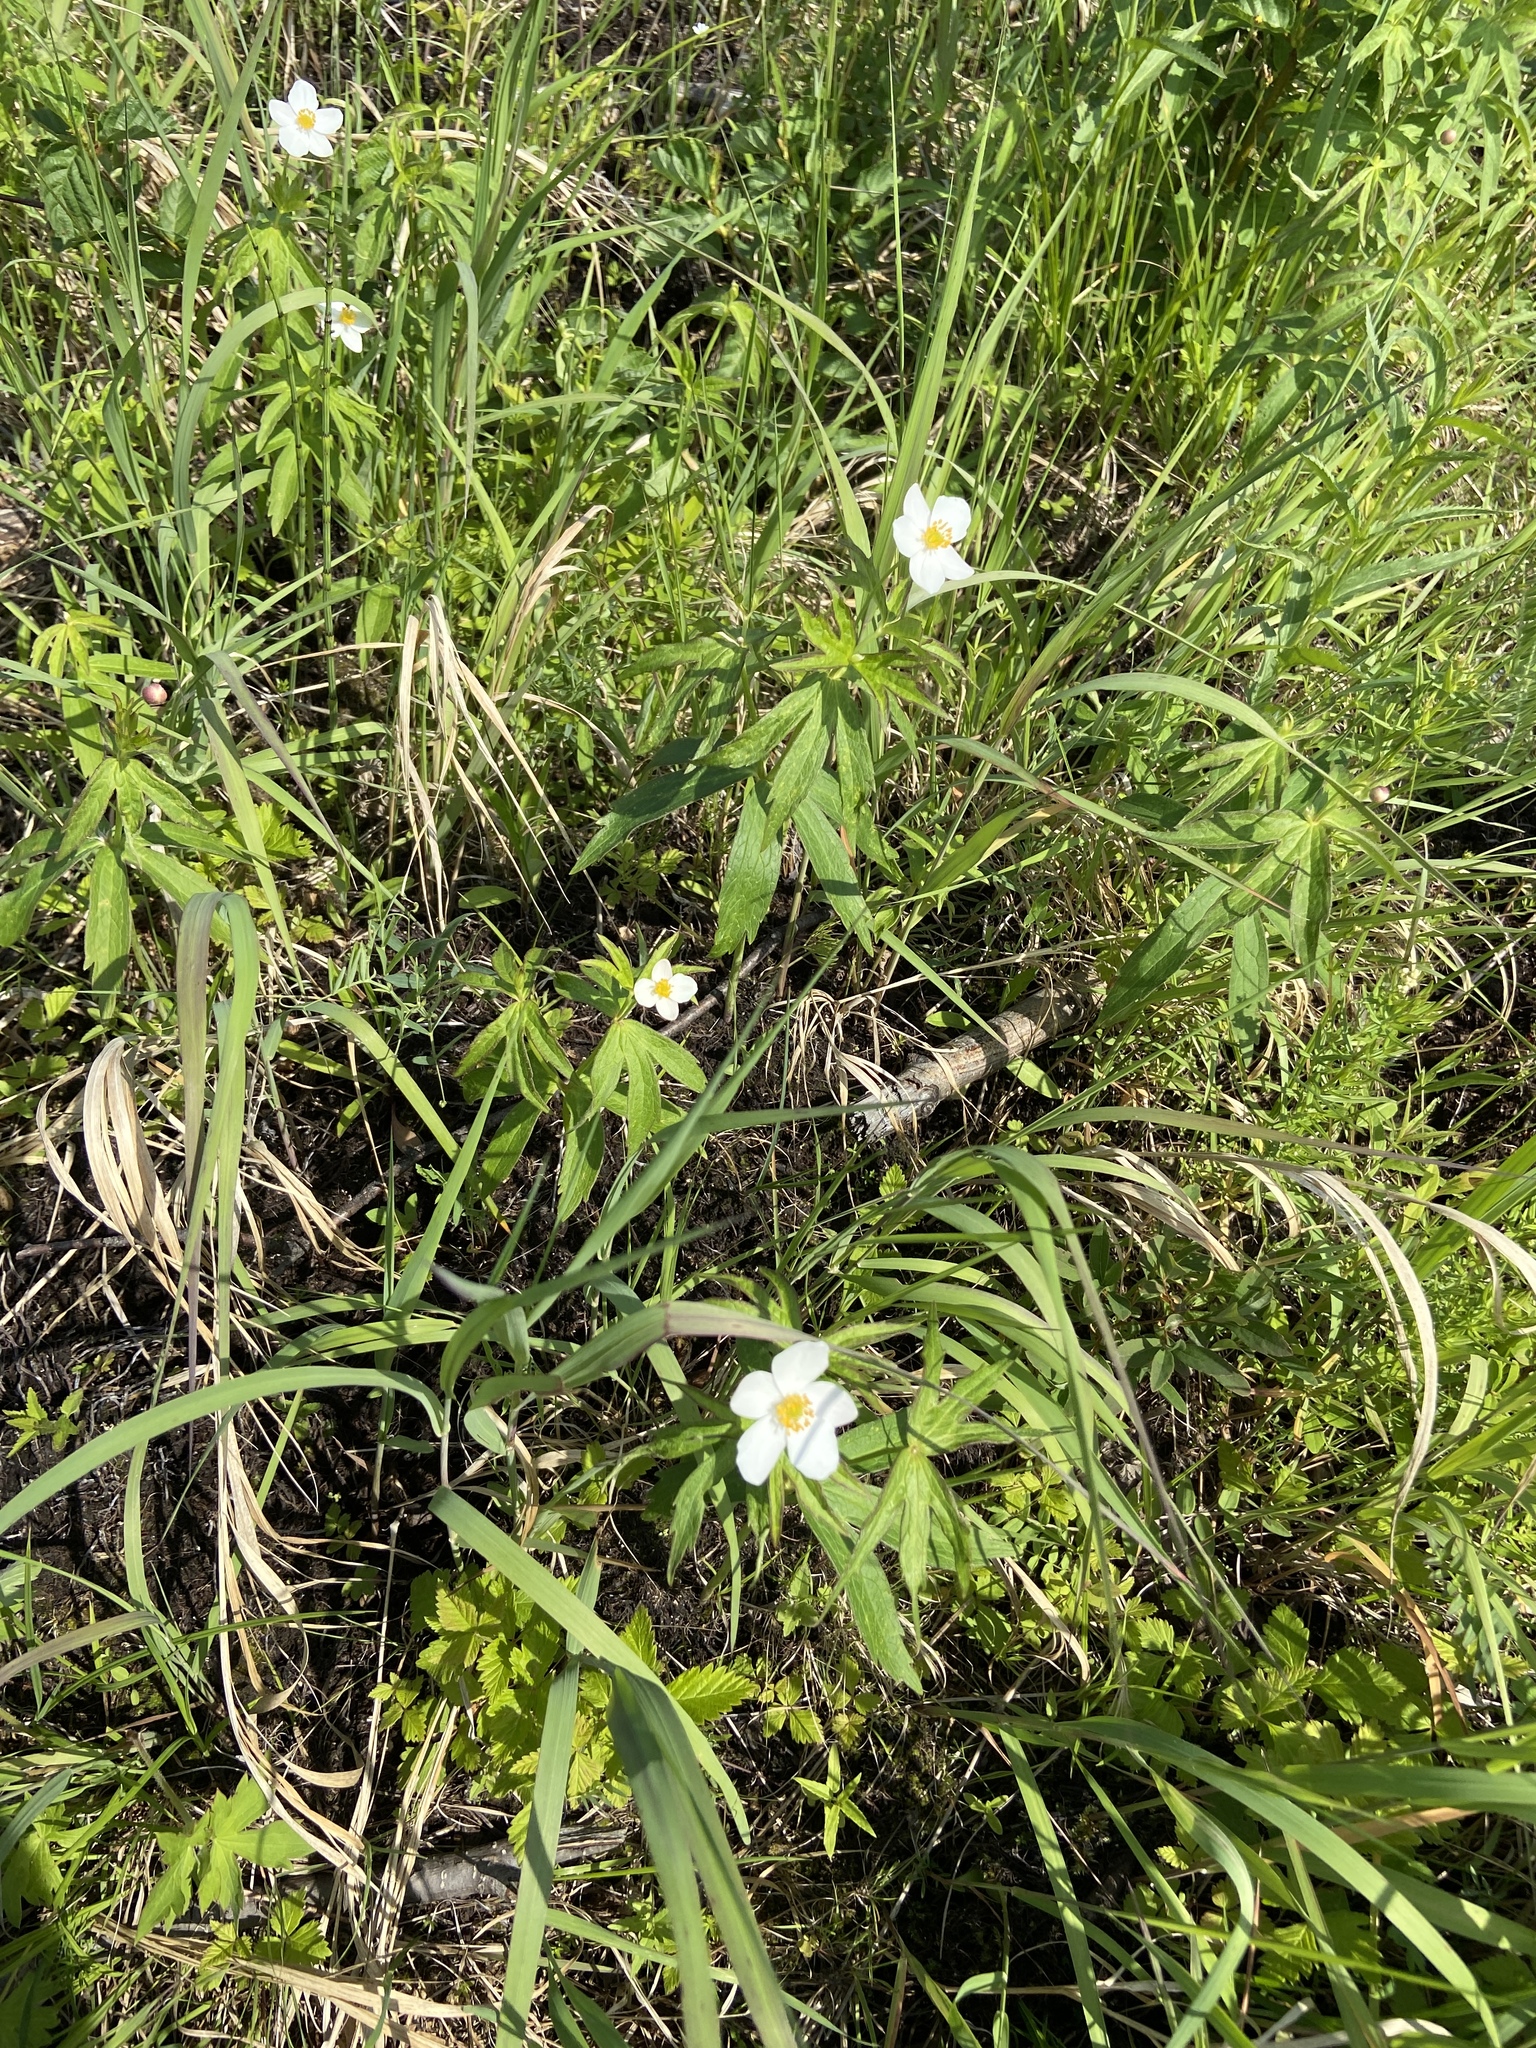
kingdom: Plantae
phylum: Tracheophyta
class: Magnoliopsida
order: Ranunculales
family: Ranunculaceae
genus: Anemonastrum
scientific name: Anemonastrum dichotomum
